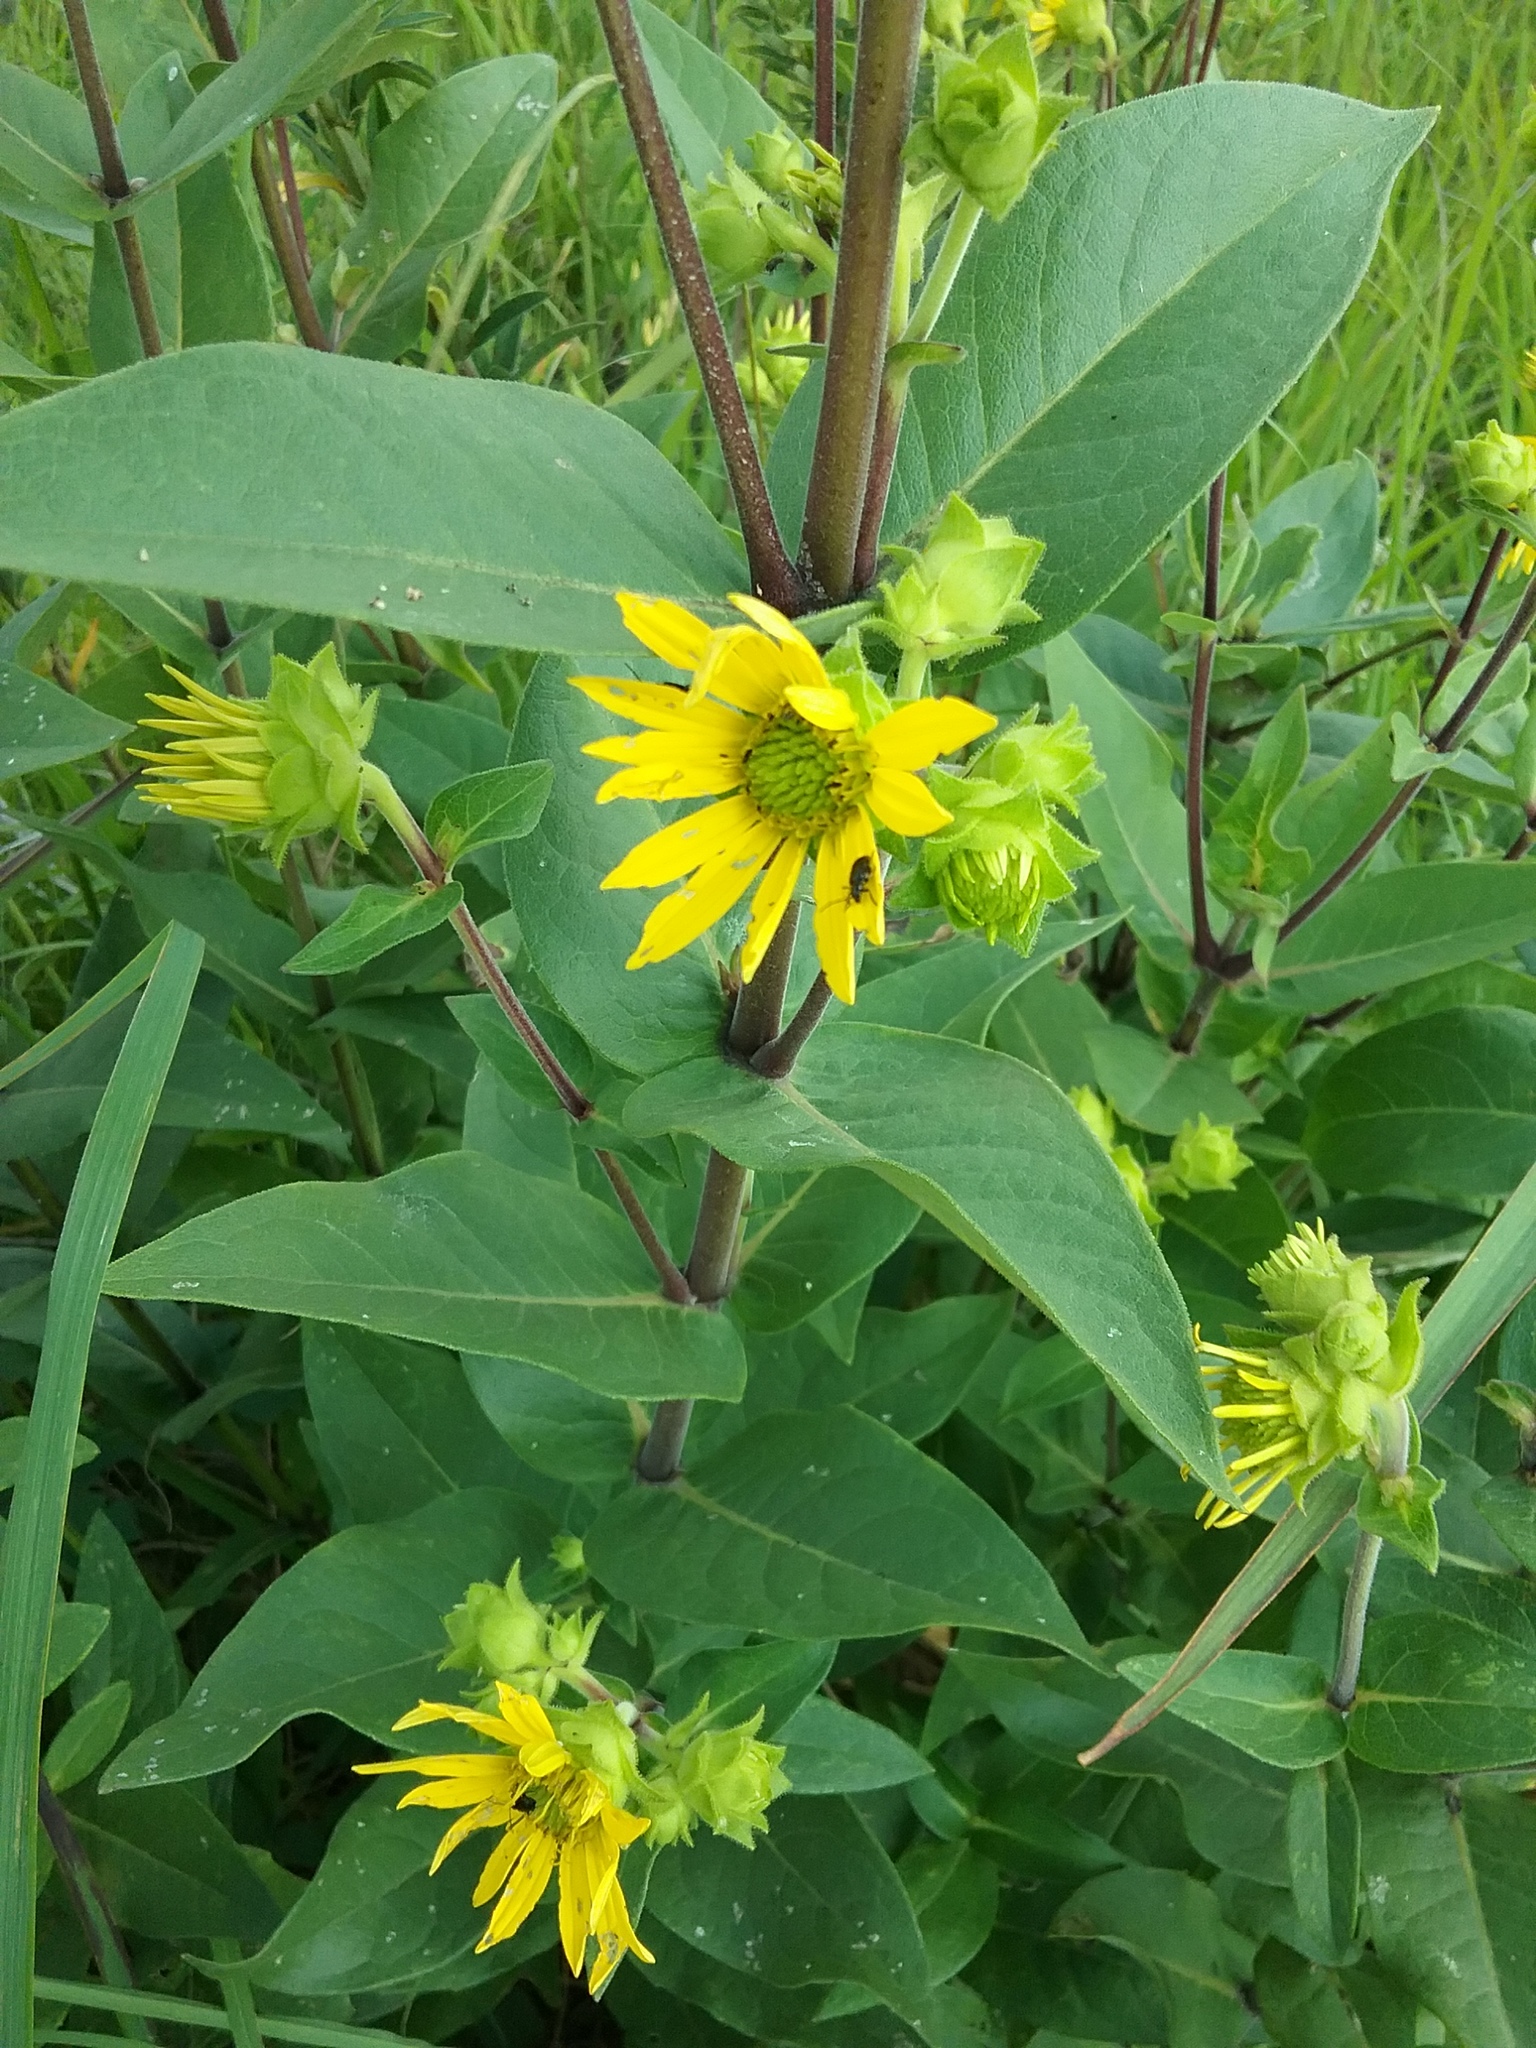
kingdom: Plantae
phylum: Tracheophyta
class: Magnoliopsida
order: Asterales
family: Asteraceae
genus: Silphium
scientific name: Silphium integrifolium
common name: Whole-leaf rosinweed
